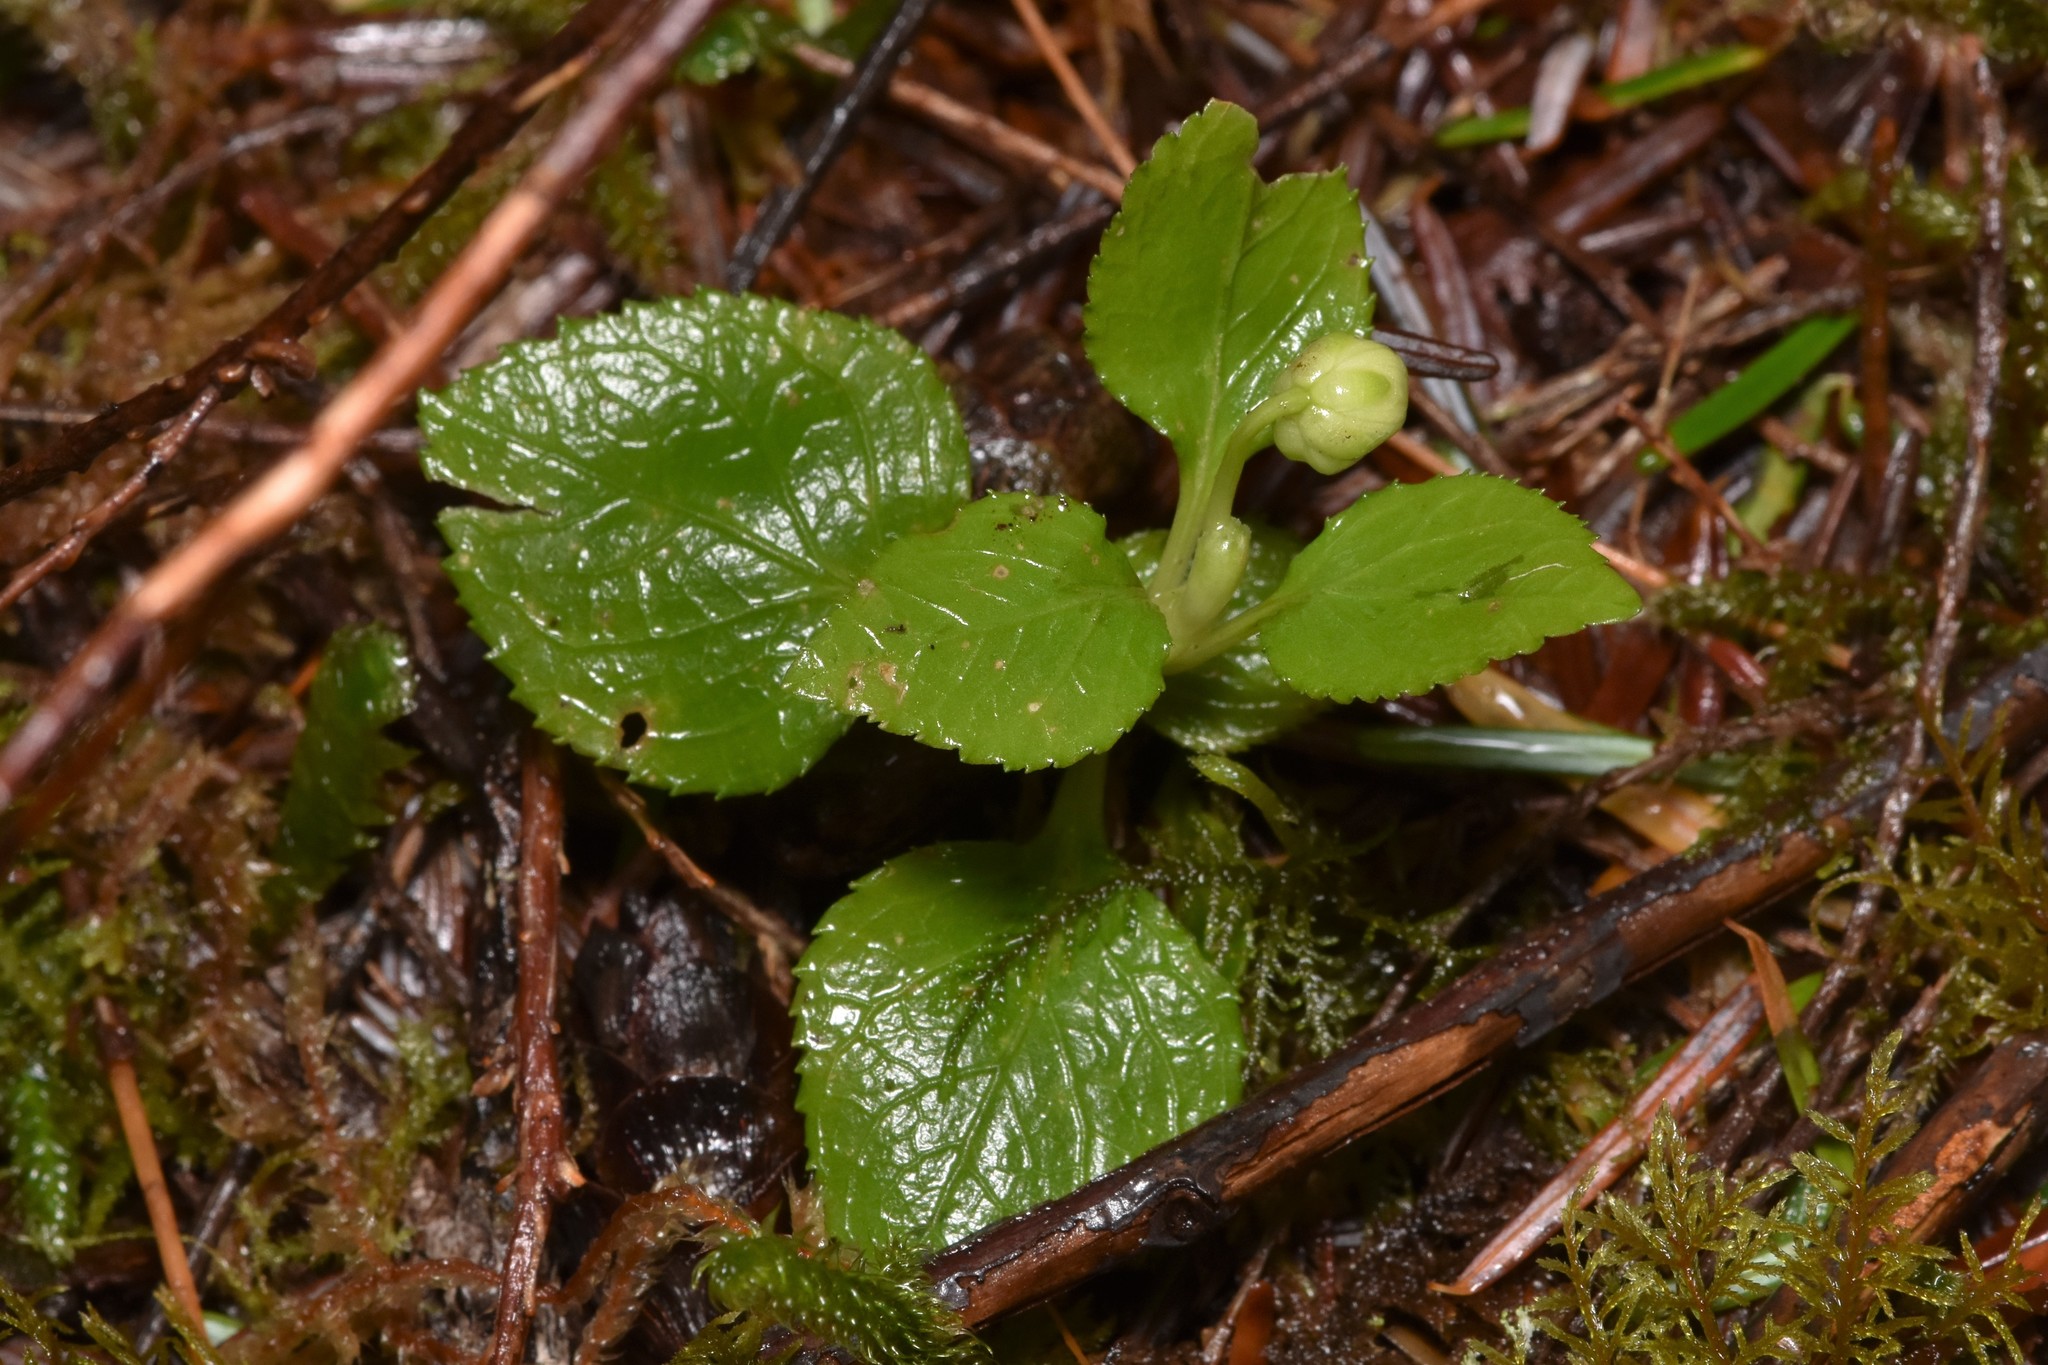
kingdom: Plantae
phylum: Tracheophyta
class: Magnoliopsida
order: Ericales
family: Ericaceae
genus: Moneses
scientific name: Moneses uniflora
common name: One-flowered wintergreen
